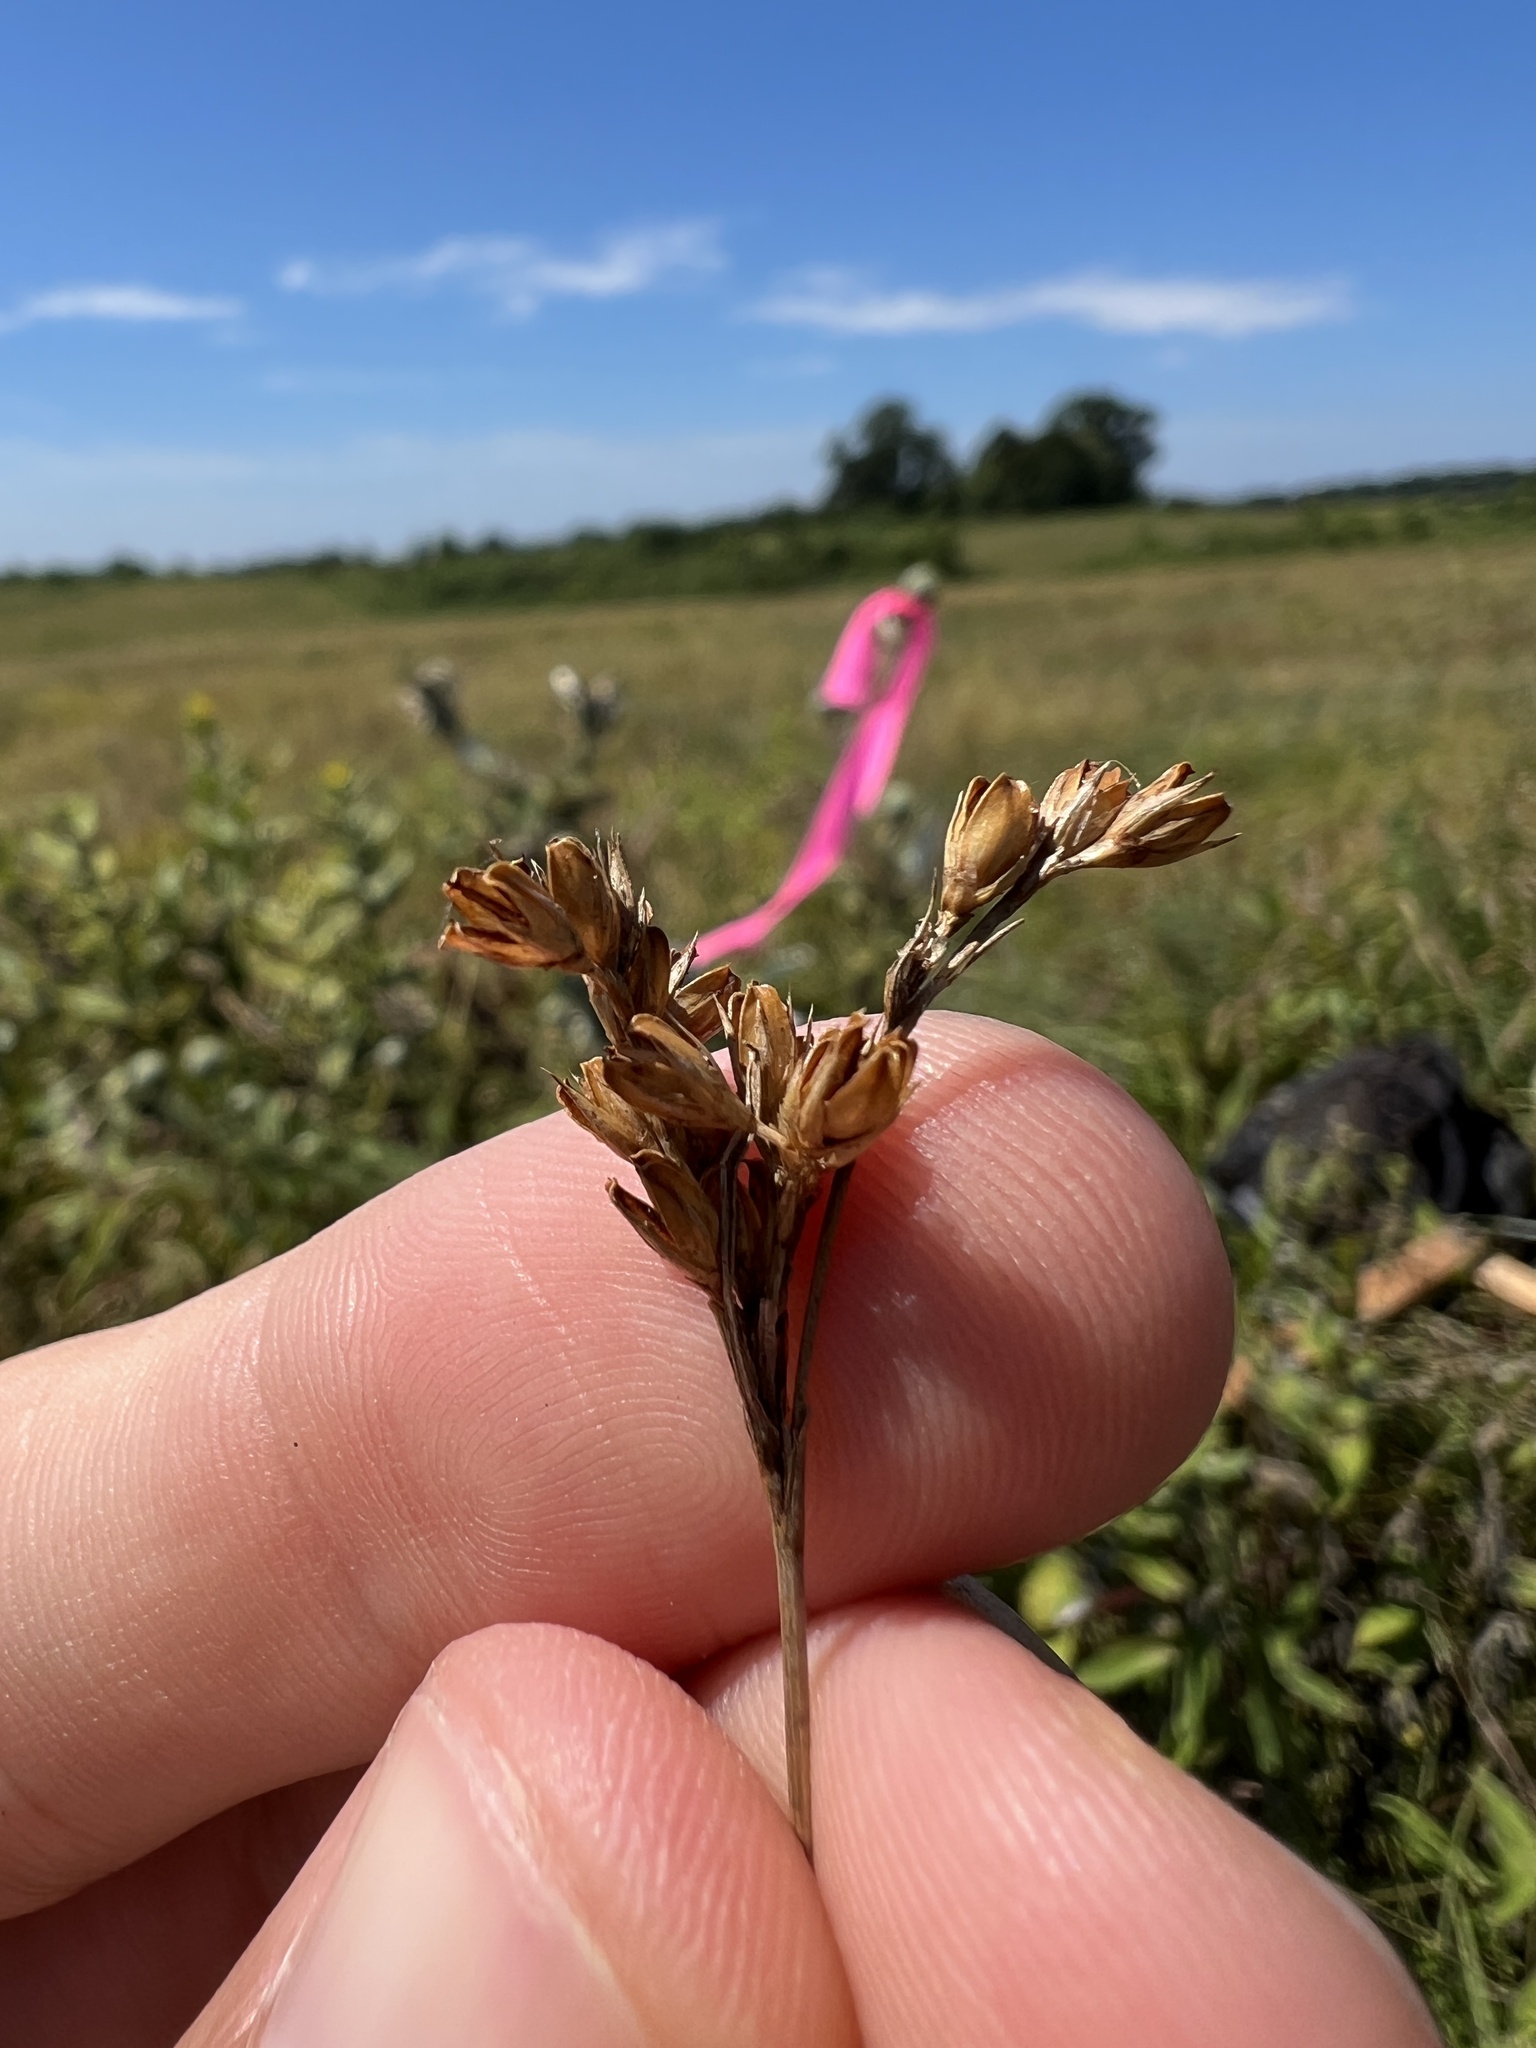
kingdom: Plantae
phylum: Tracheophyta
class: Liliopsida
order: Poales
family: Juncaceae
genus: Juncus
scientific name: Juncus brachyphyllus
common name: Tufted-stem rush
